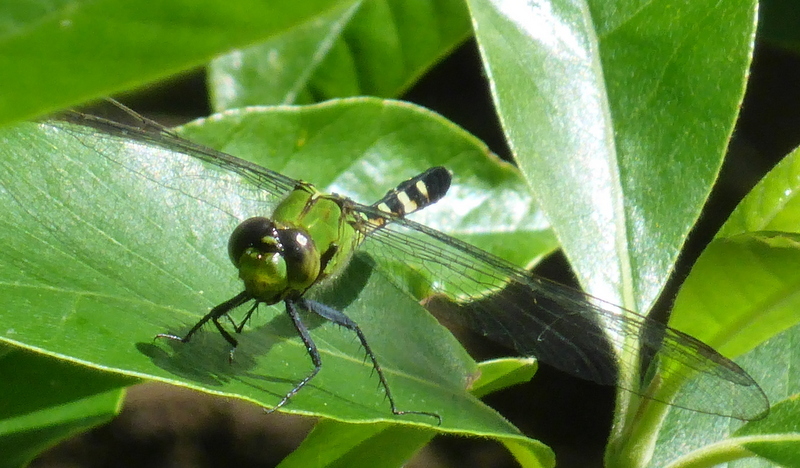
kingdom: Animalia
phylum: Arthropoda
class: Insecta
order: Odonata
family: Libellulidae
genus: Erythemis
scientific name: Erythemis simplicicollis
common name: Eastern pondhawk
